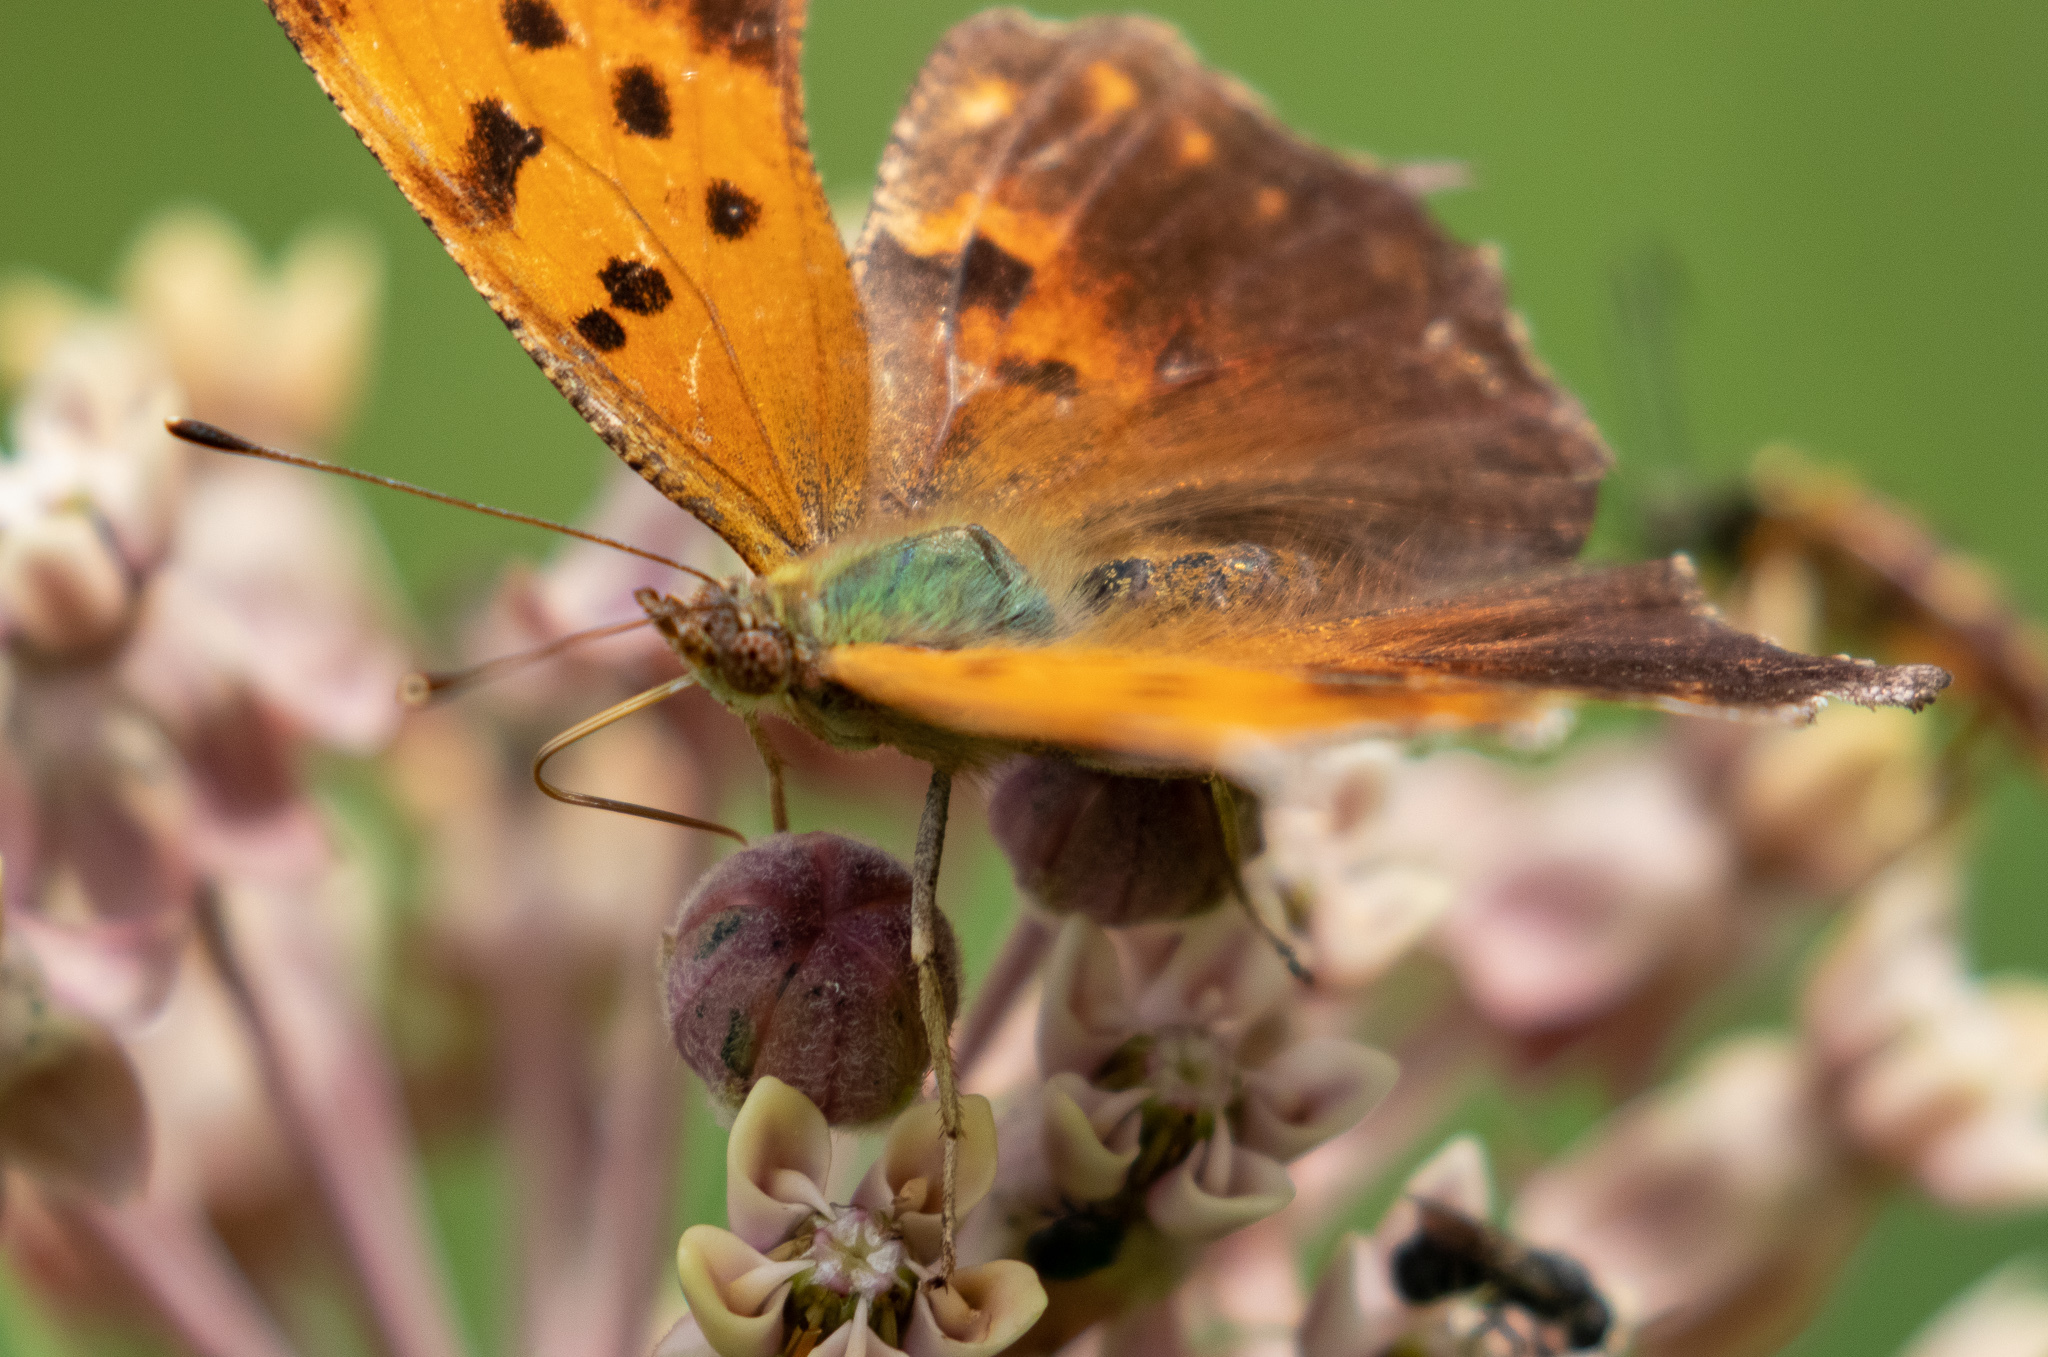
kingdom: Animalia
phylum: Arthropoda
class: Insecta
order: Lepidoptera
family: Nymphalidae
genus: Polygonia
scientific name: Polygonia comma
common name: Eastern comma
